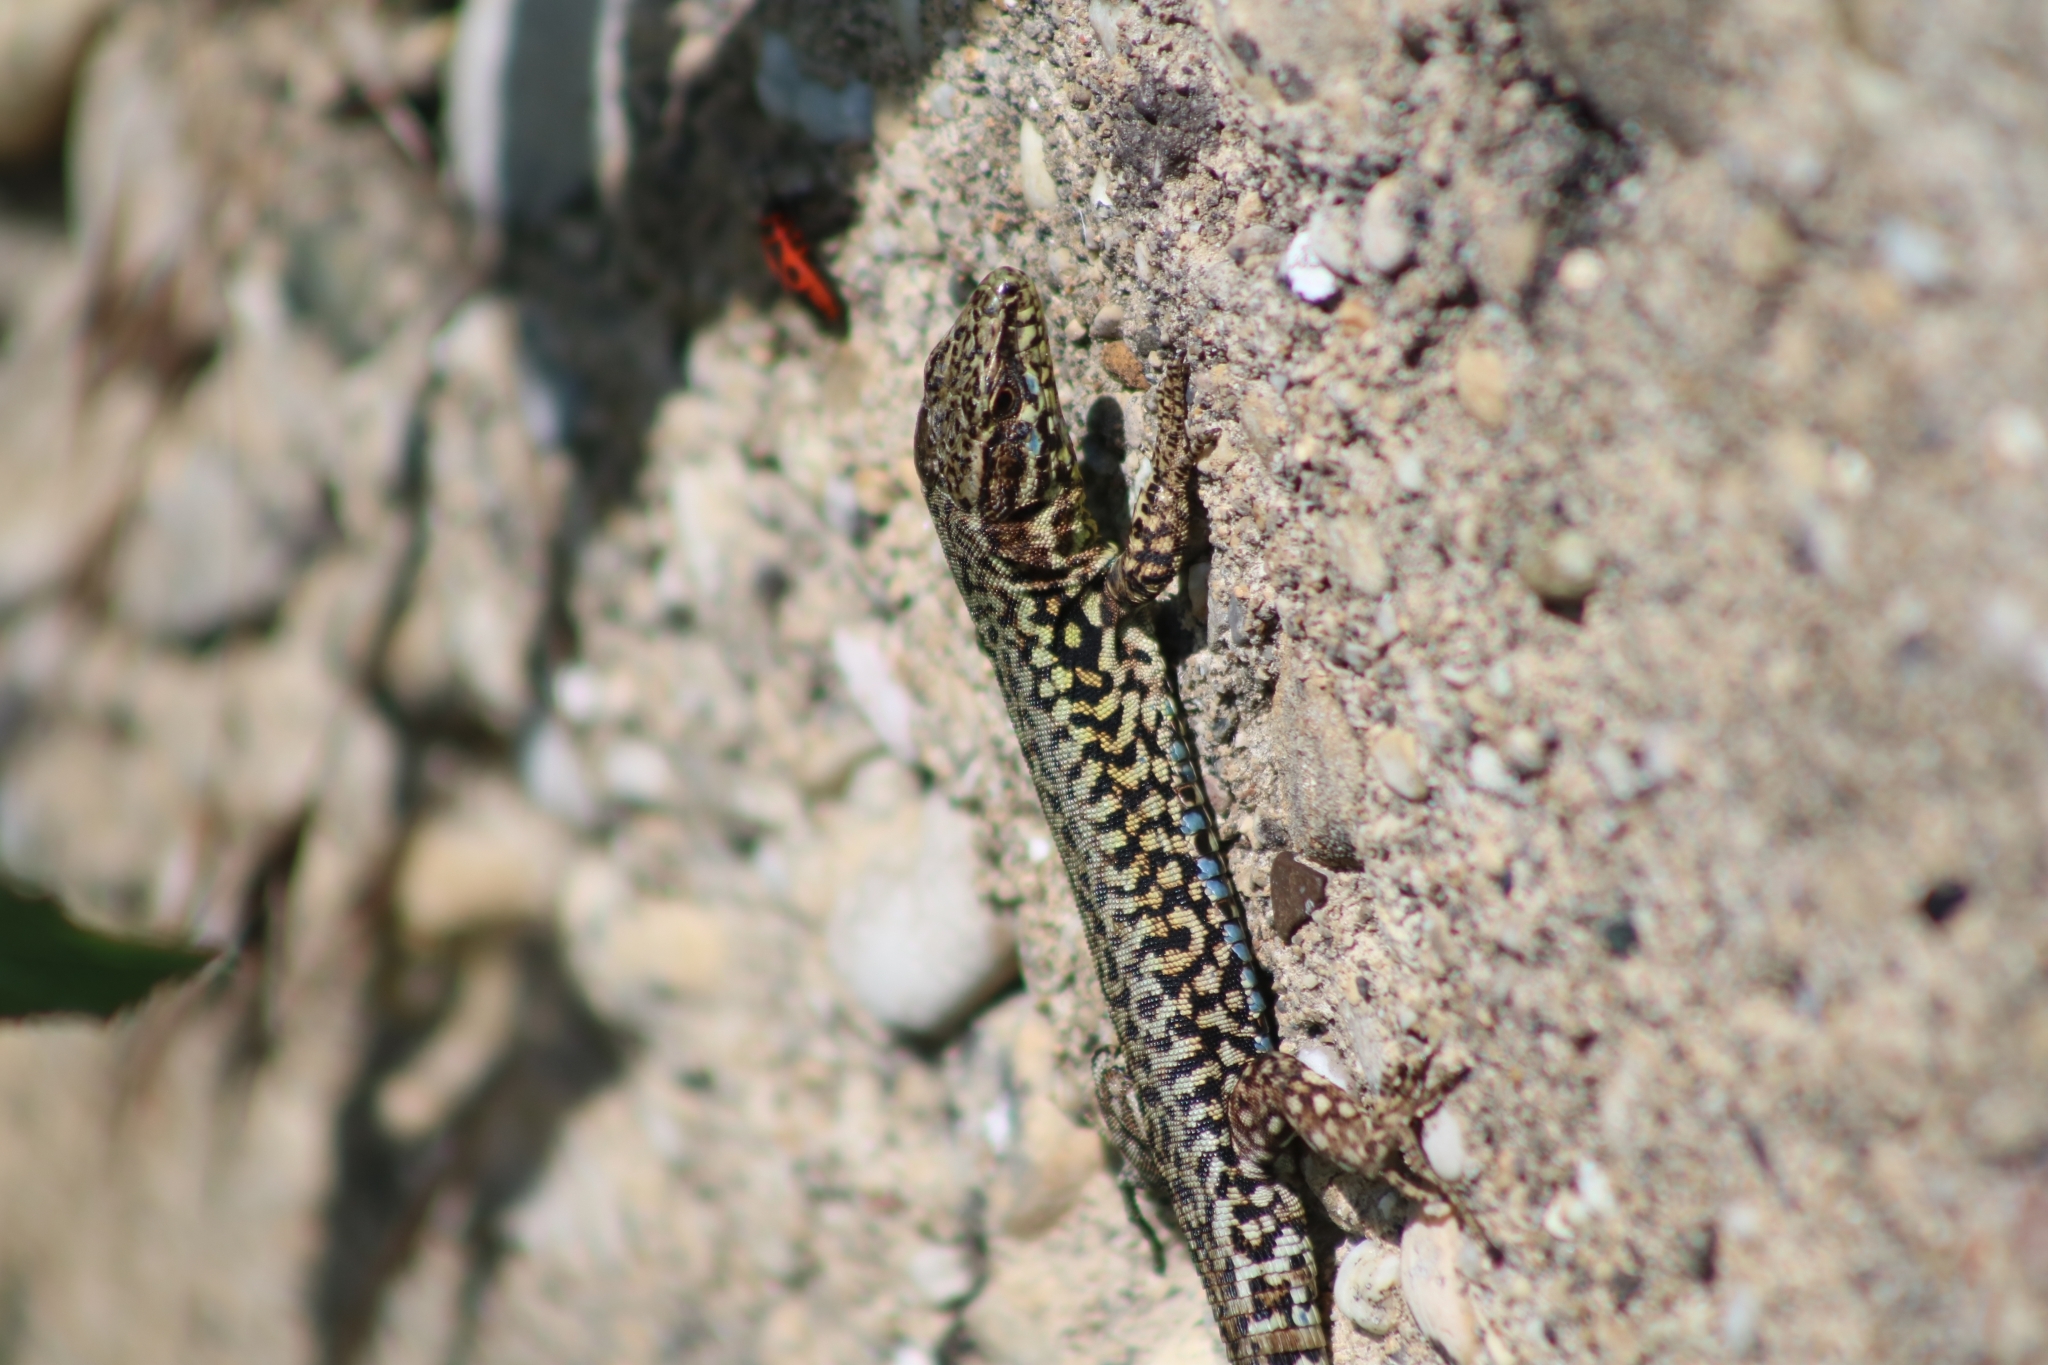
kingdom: Animalia
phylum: Chordata
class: Squamata
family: Lacertidae
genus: Podarcis
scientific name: Podarcis muralis
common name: Common wall lizard
